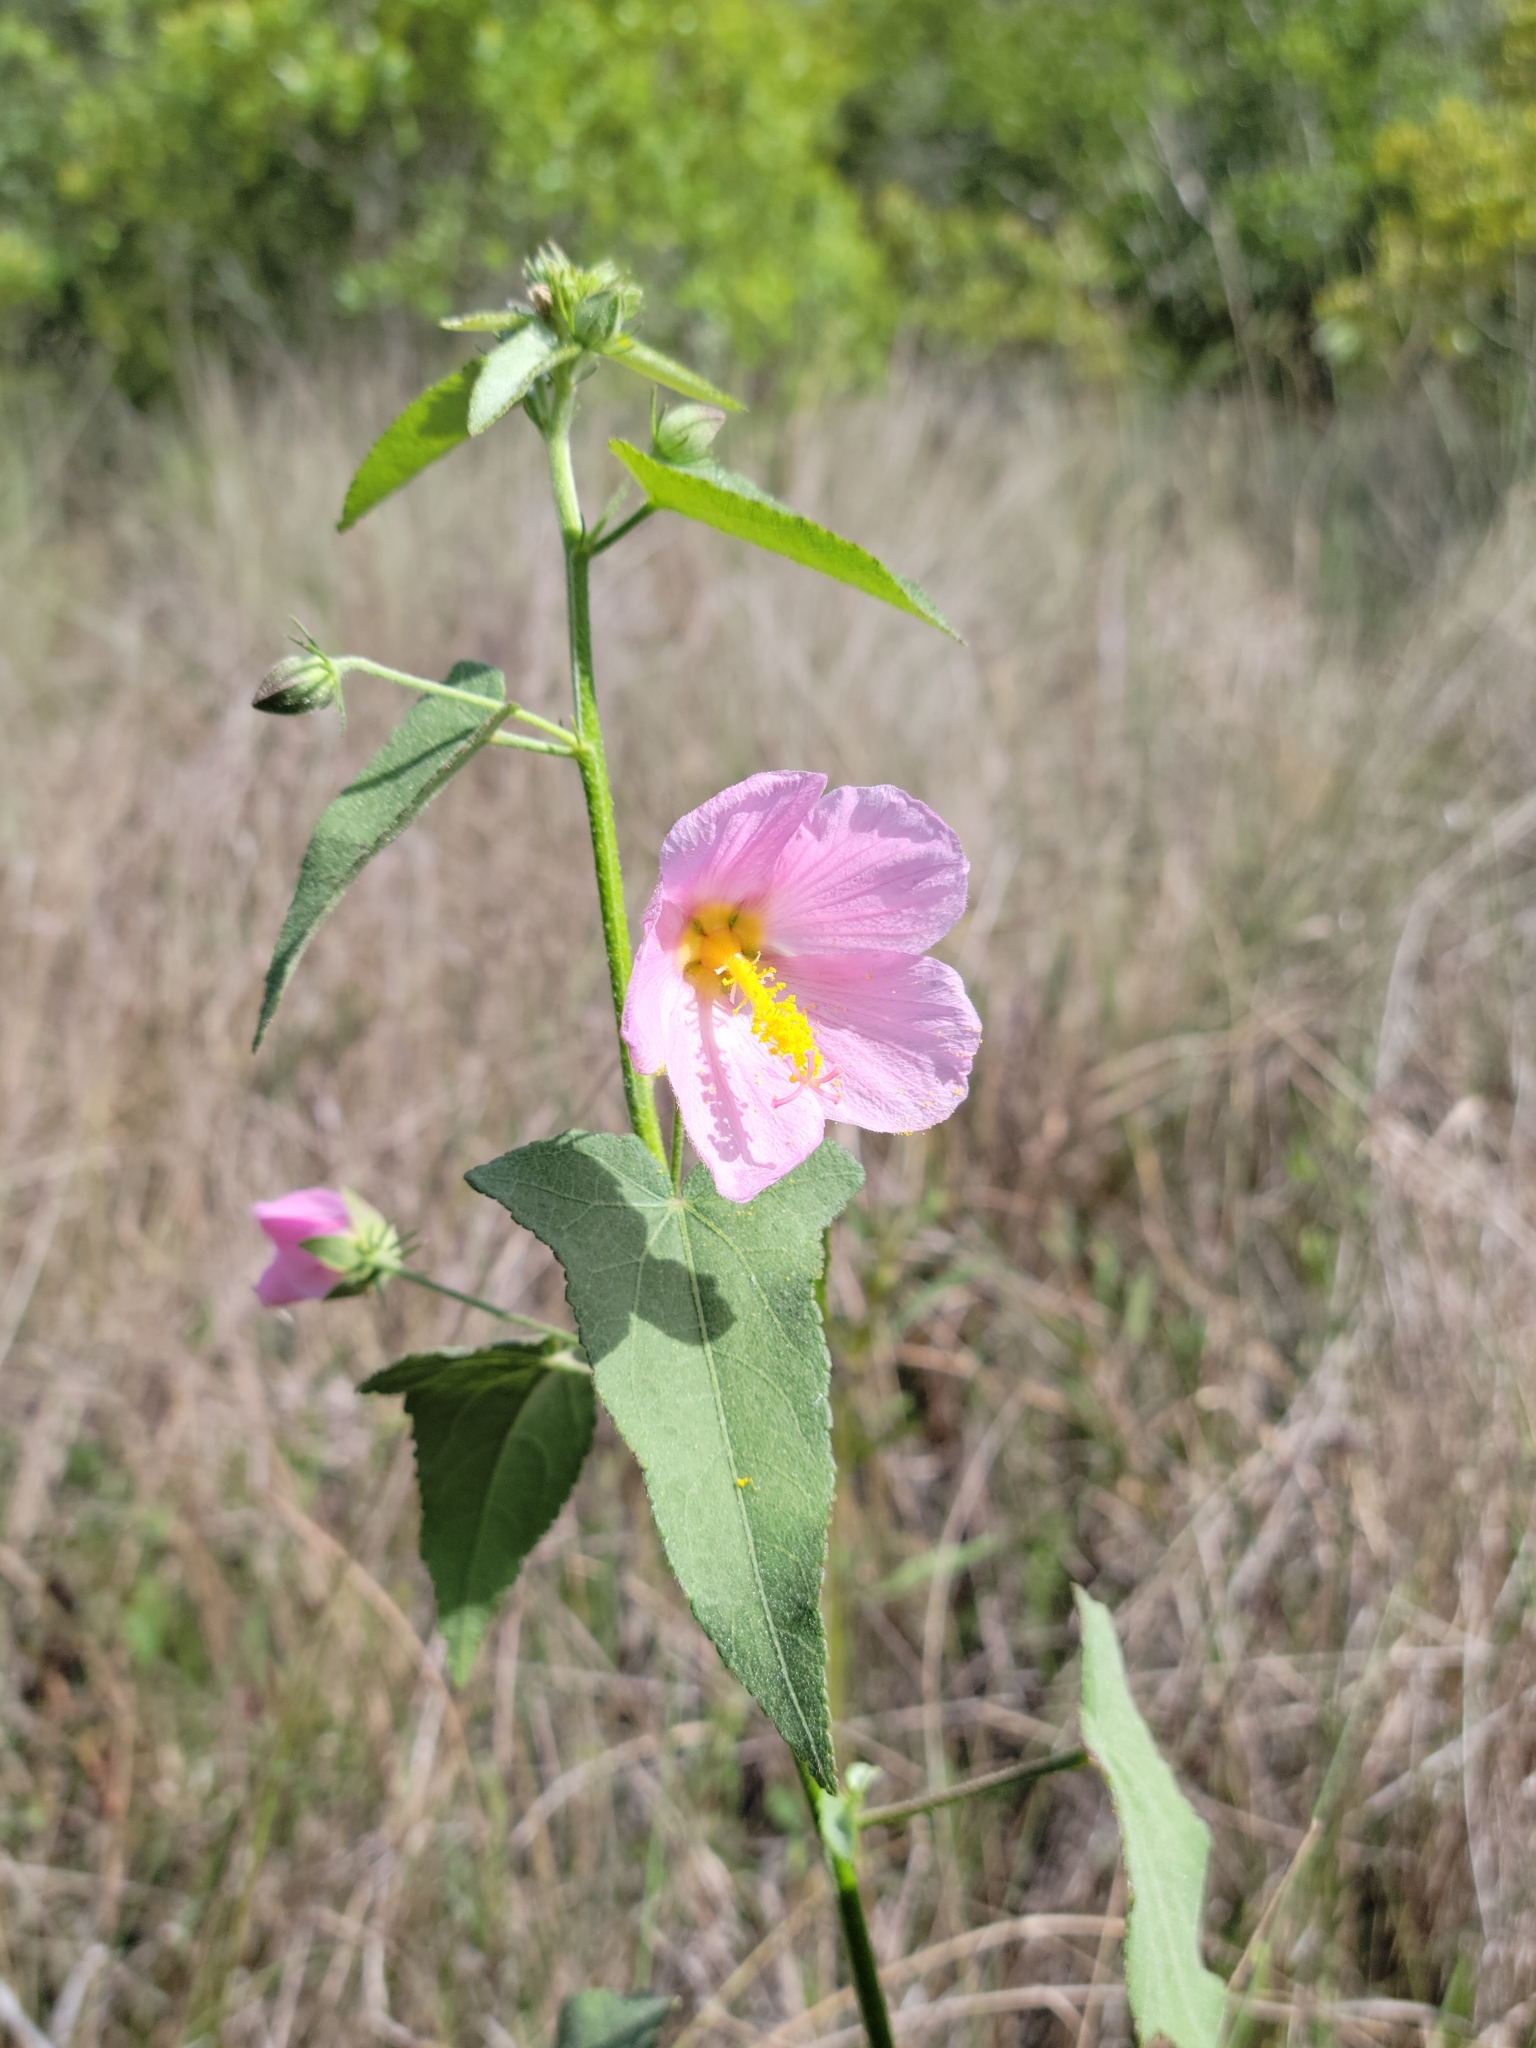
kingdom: Plantae
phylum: Tracheophyta
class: Magnoliopsida
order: Malvales
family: Malvaceae
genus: Kosteletzkya
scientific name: Kosteletzkya pentacarpos
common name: Virginia saltmarsh mallow
